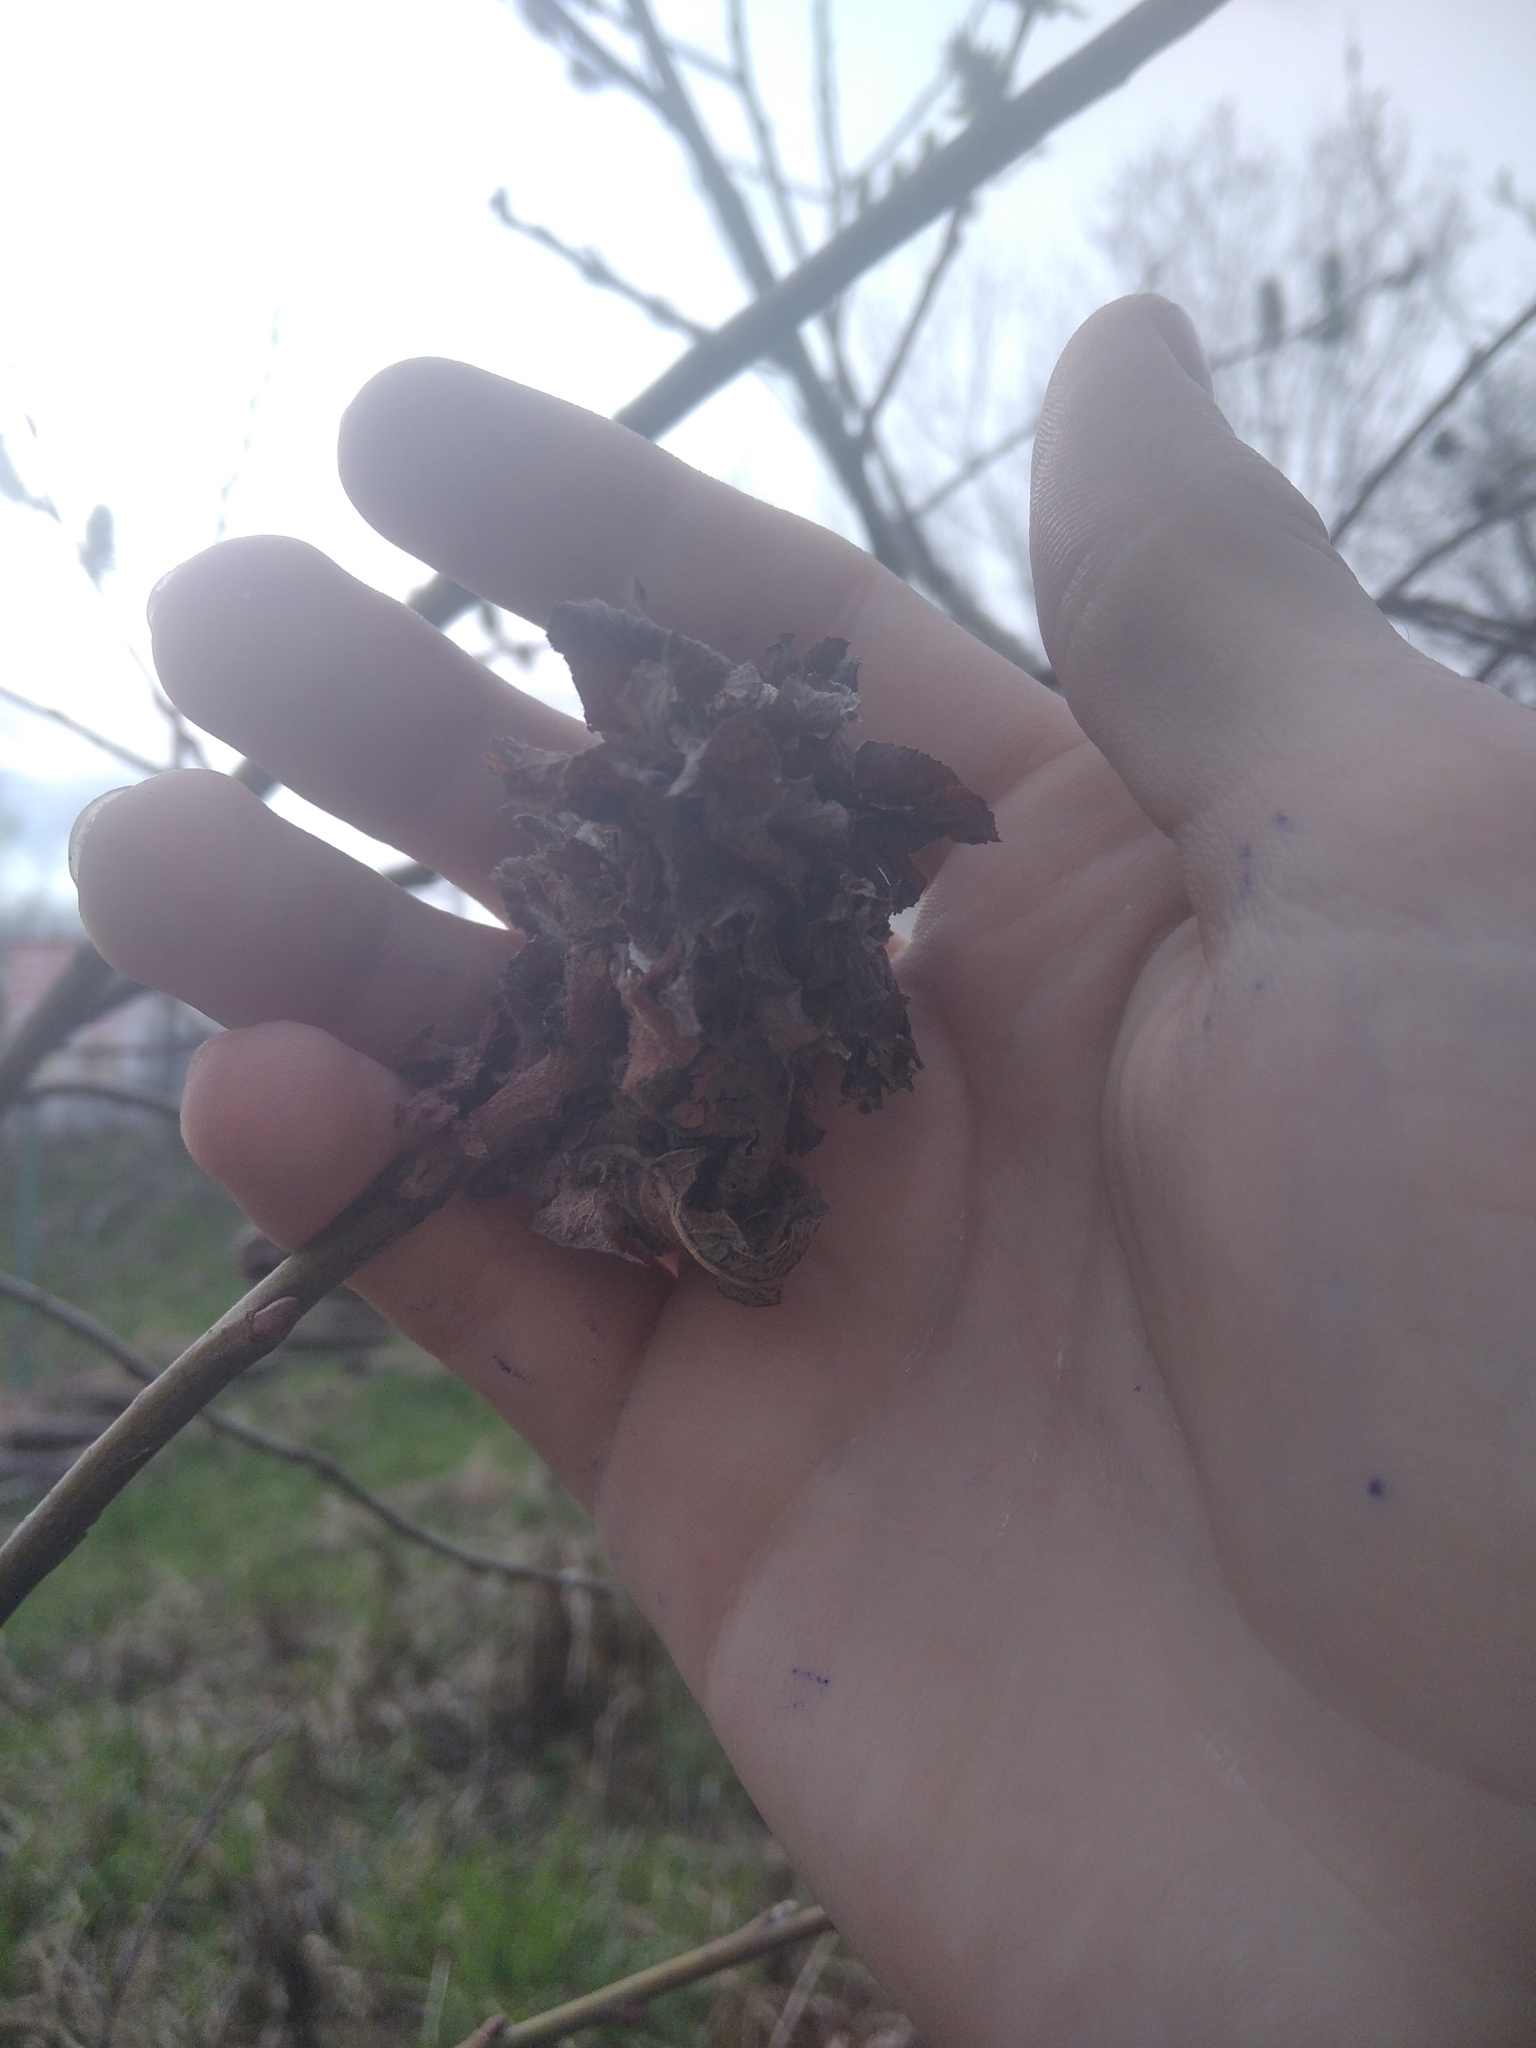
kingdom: Animalia
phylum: Arthropoda
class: Insecta
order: Diptera
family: Cecidomyiidae
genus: Rabdophaga
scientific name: Rabdophaga rosaria
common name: Willow rose gall midge
